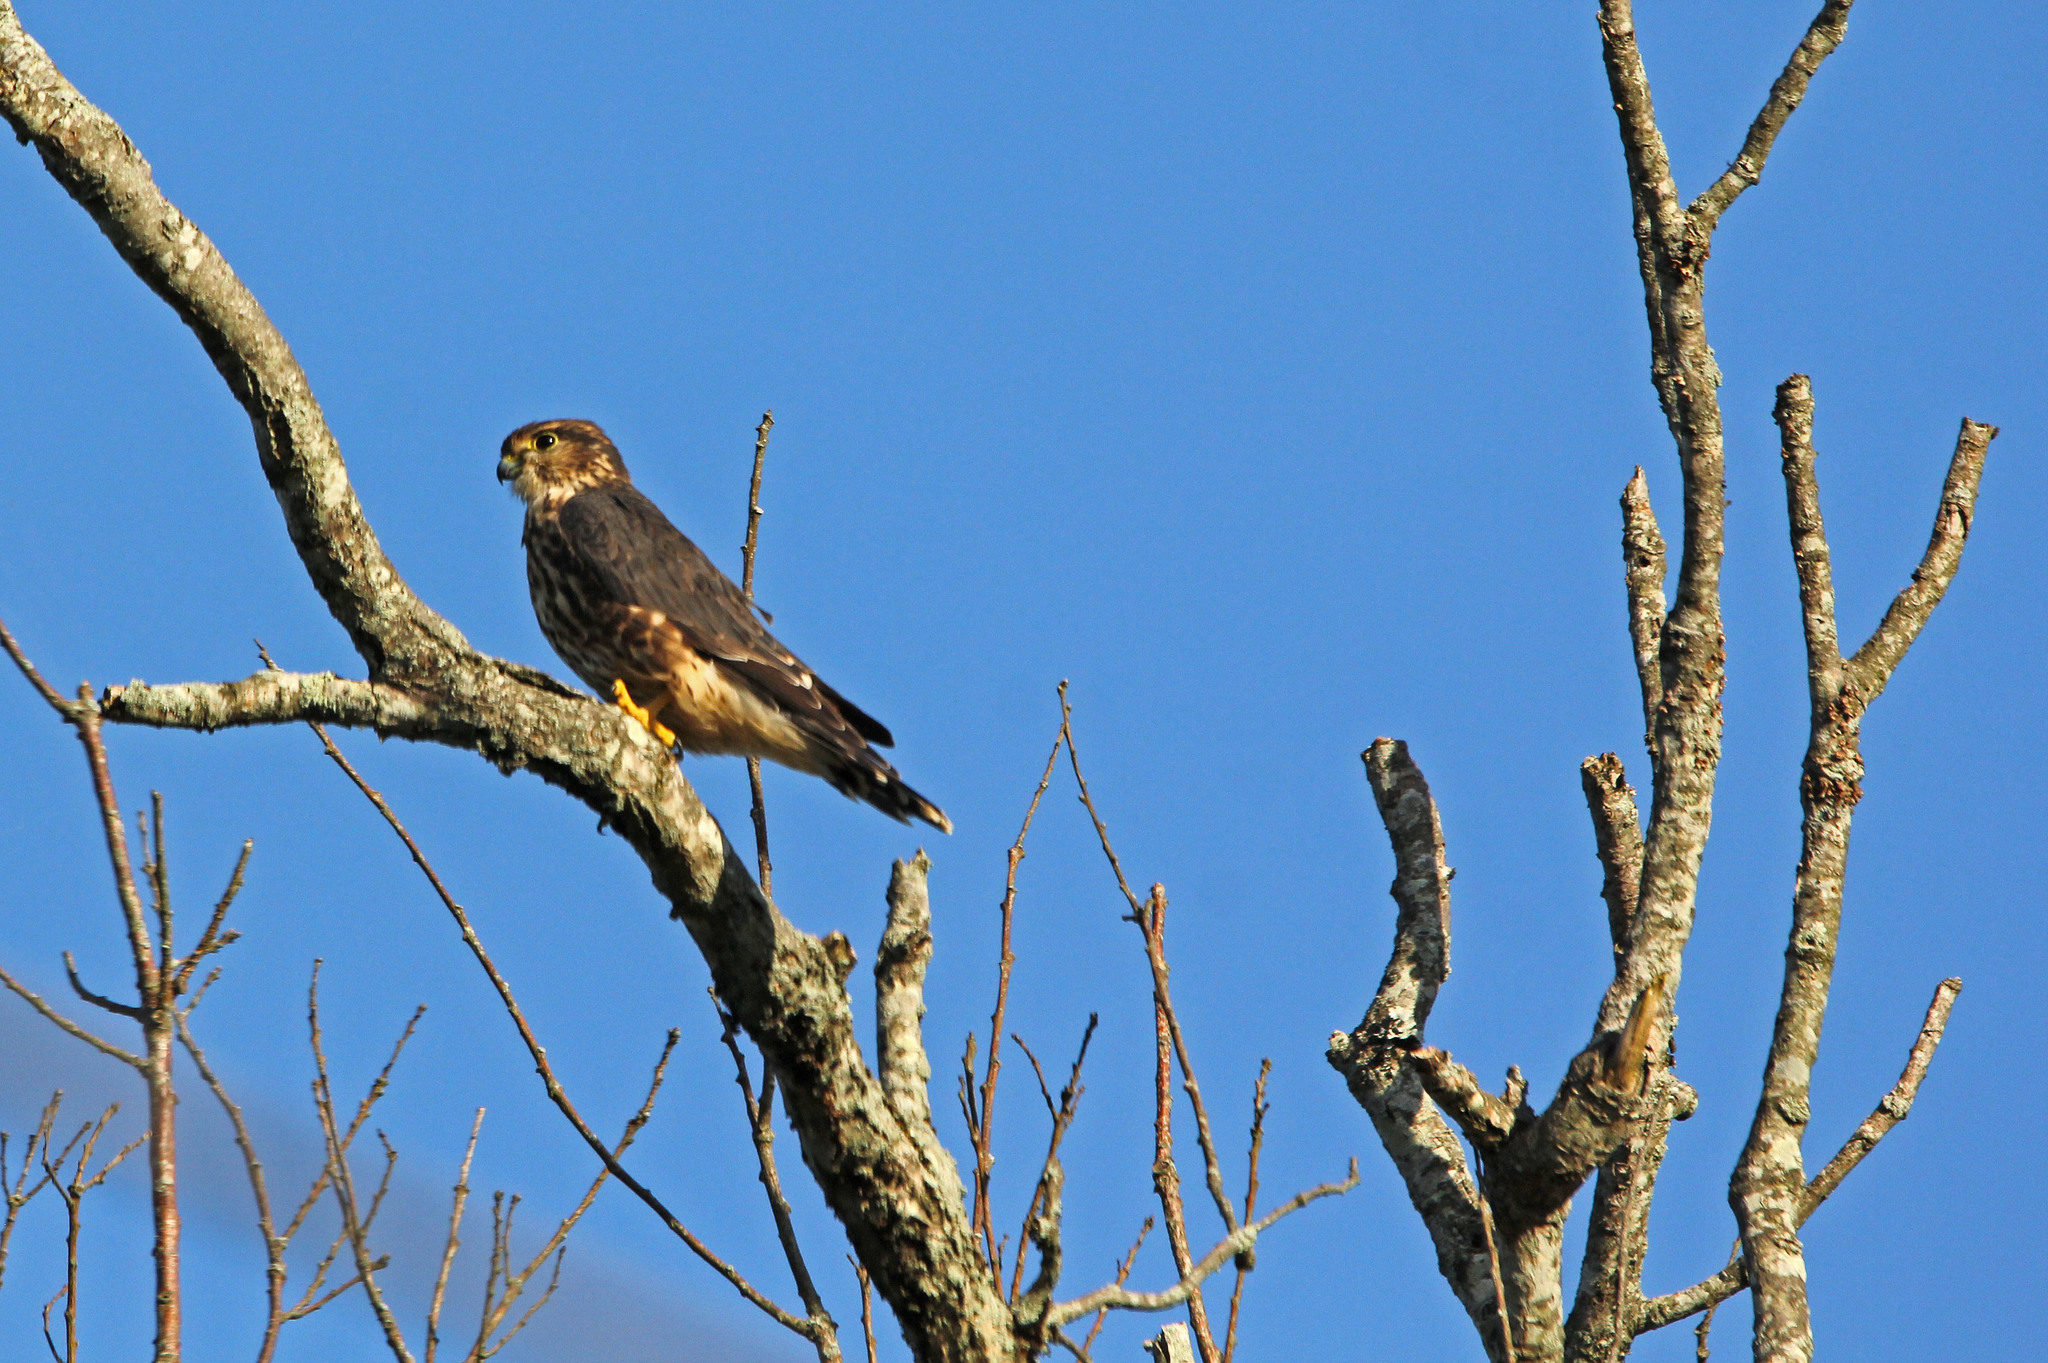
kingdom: Animalia
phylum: Chordata
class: Aves
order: Falconiformes
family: Falconidae
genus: Falco
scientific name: Falco columbarius
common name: Merlin
